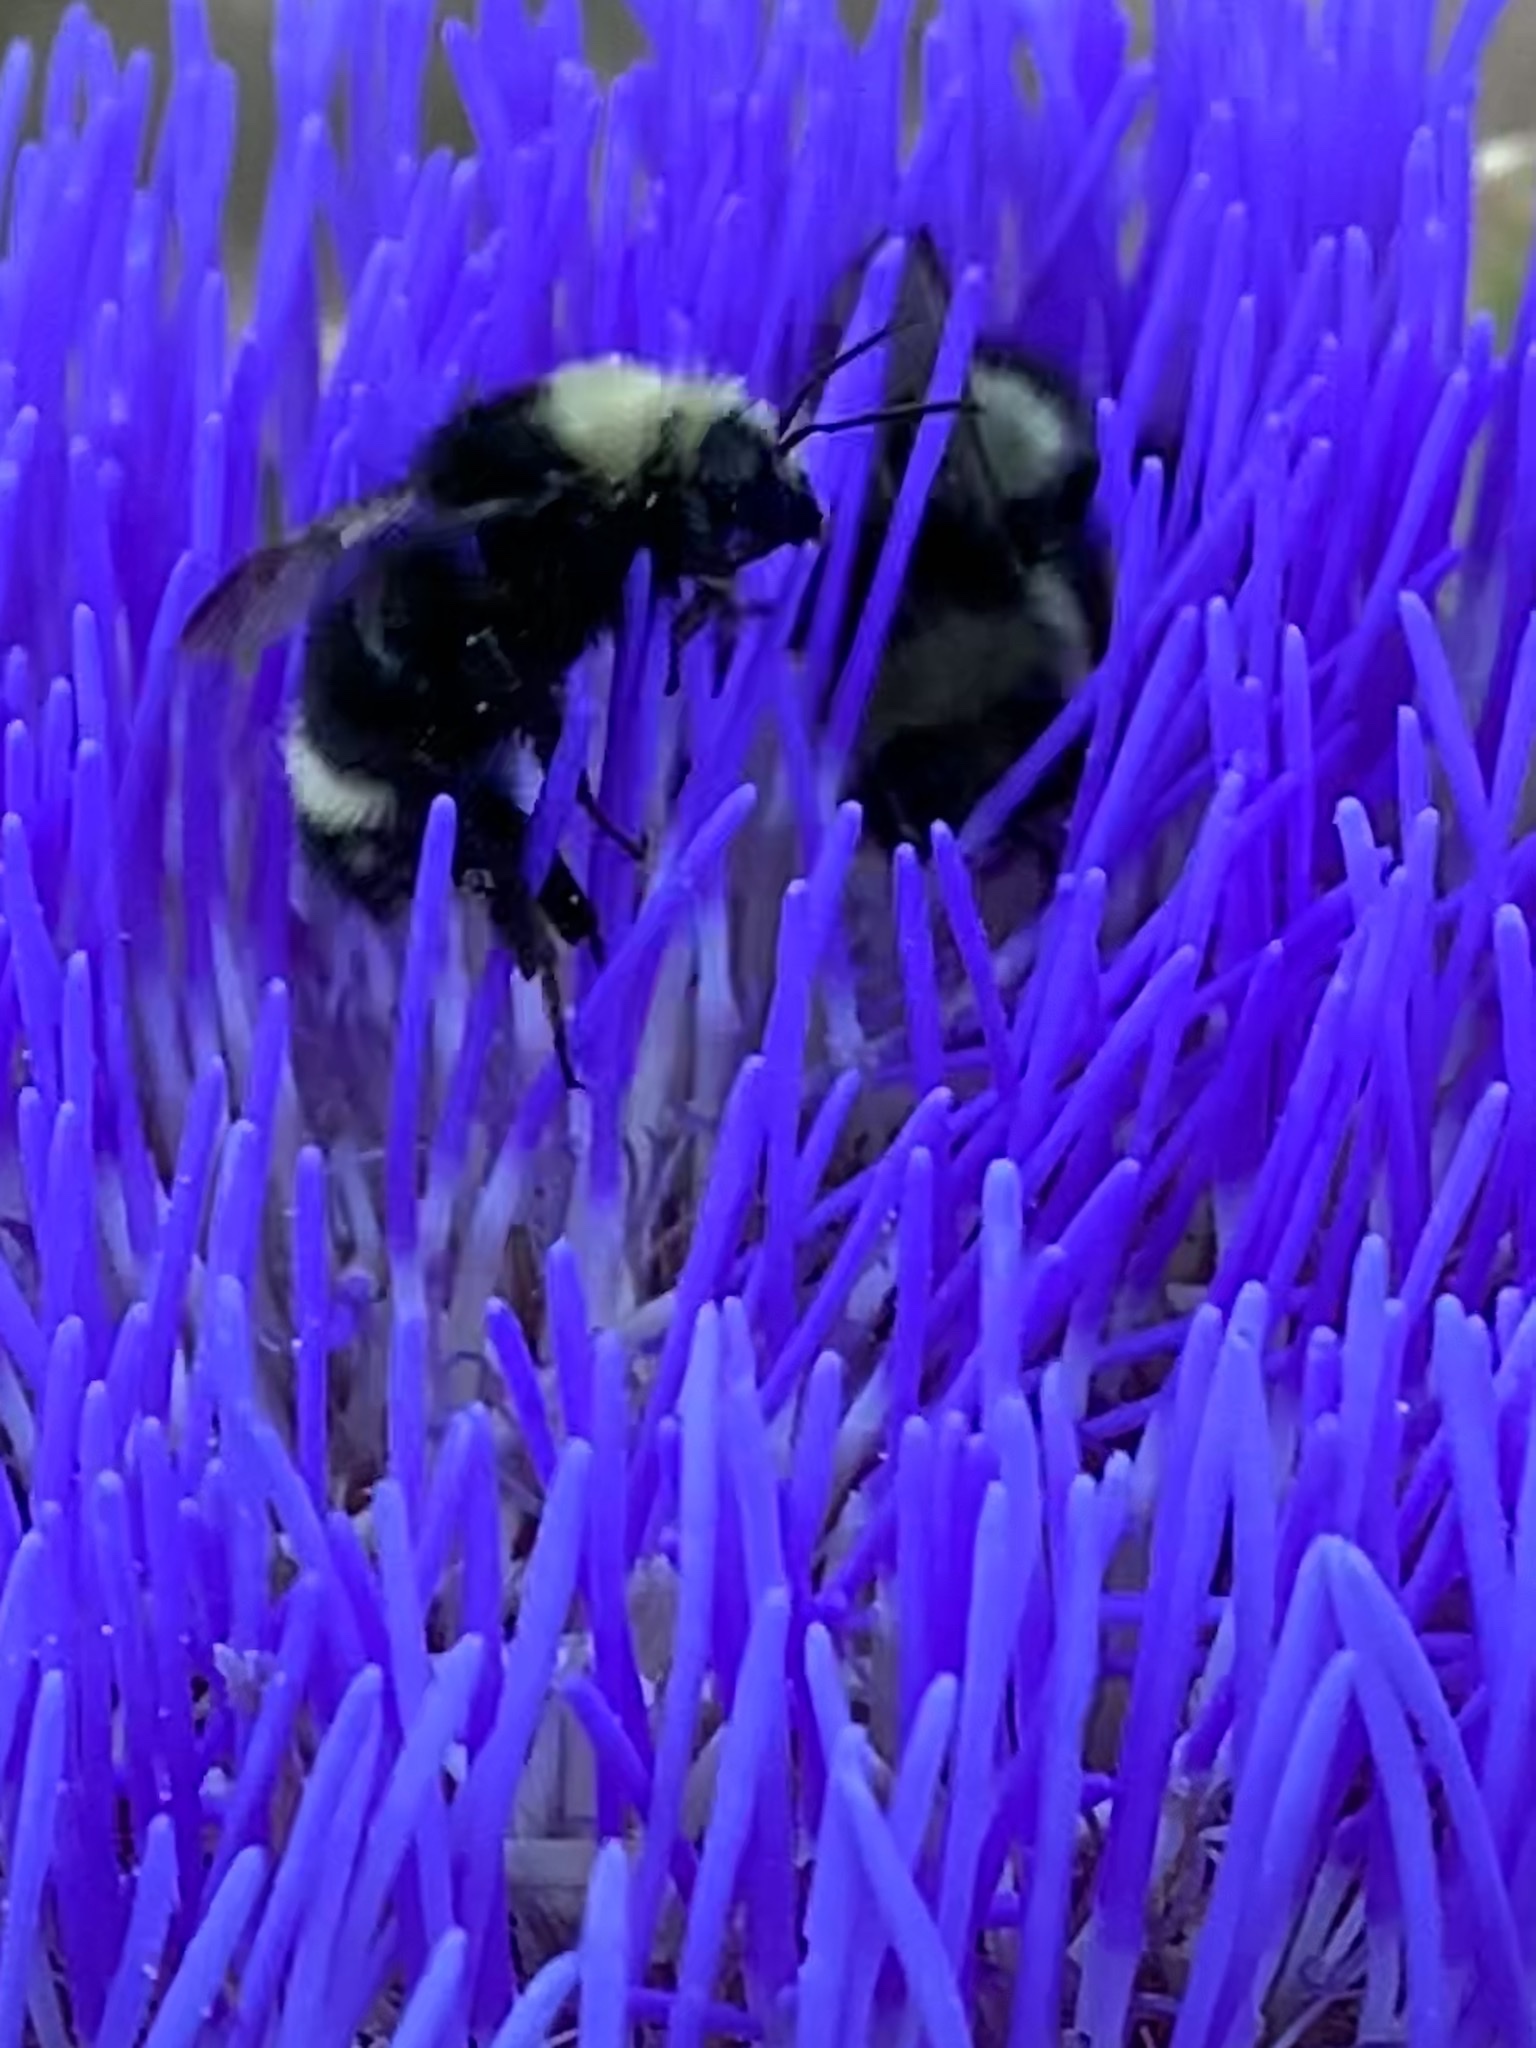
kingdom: Animalia
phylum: Arthropoda
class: Insecta
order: Hymenoptera
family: Apidae
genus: Bombus
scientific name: Bombus vosnesenskii
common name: Vosnesensky bumble bee
